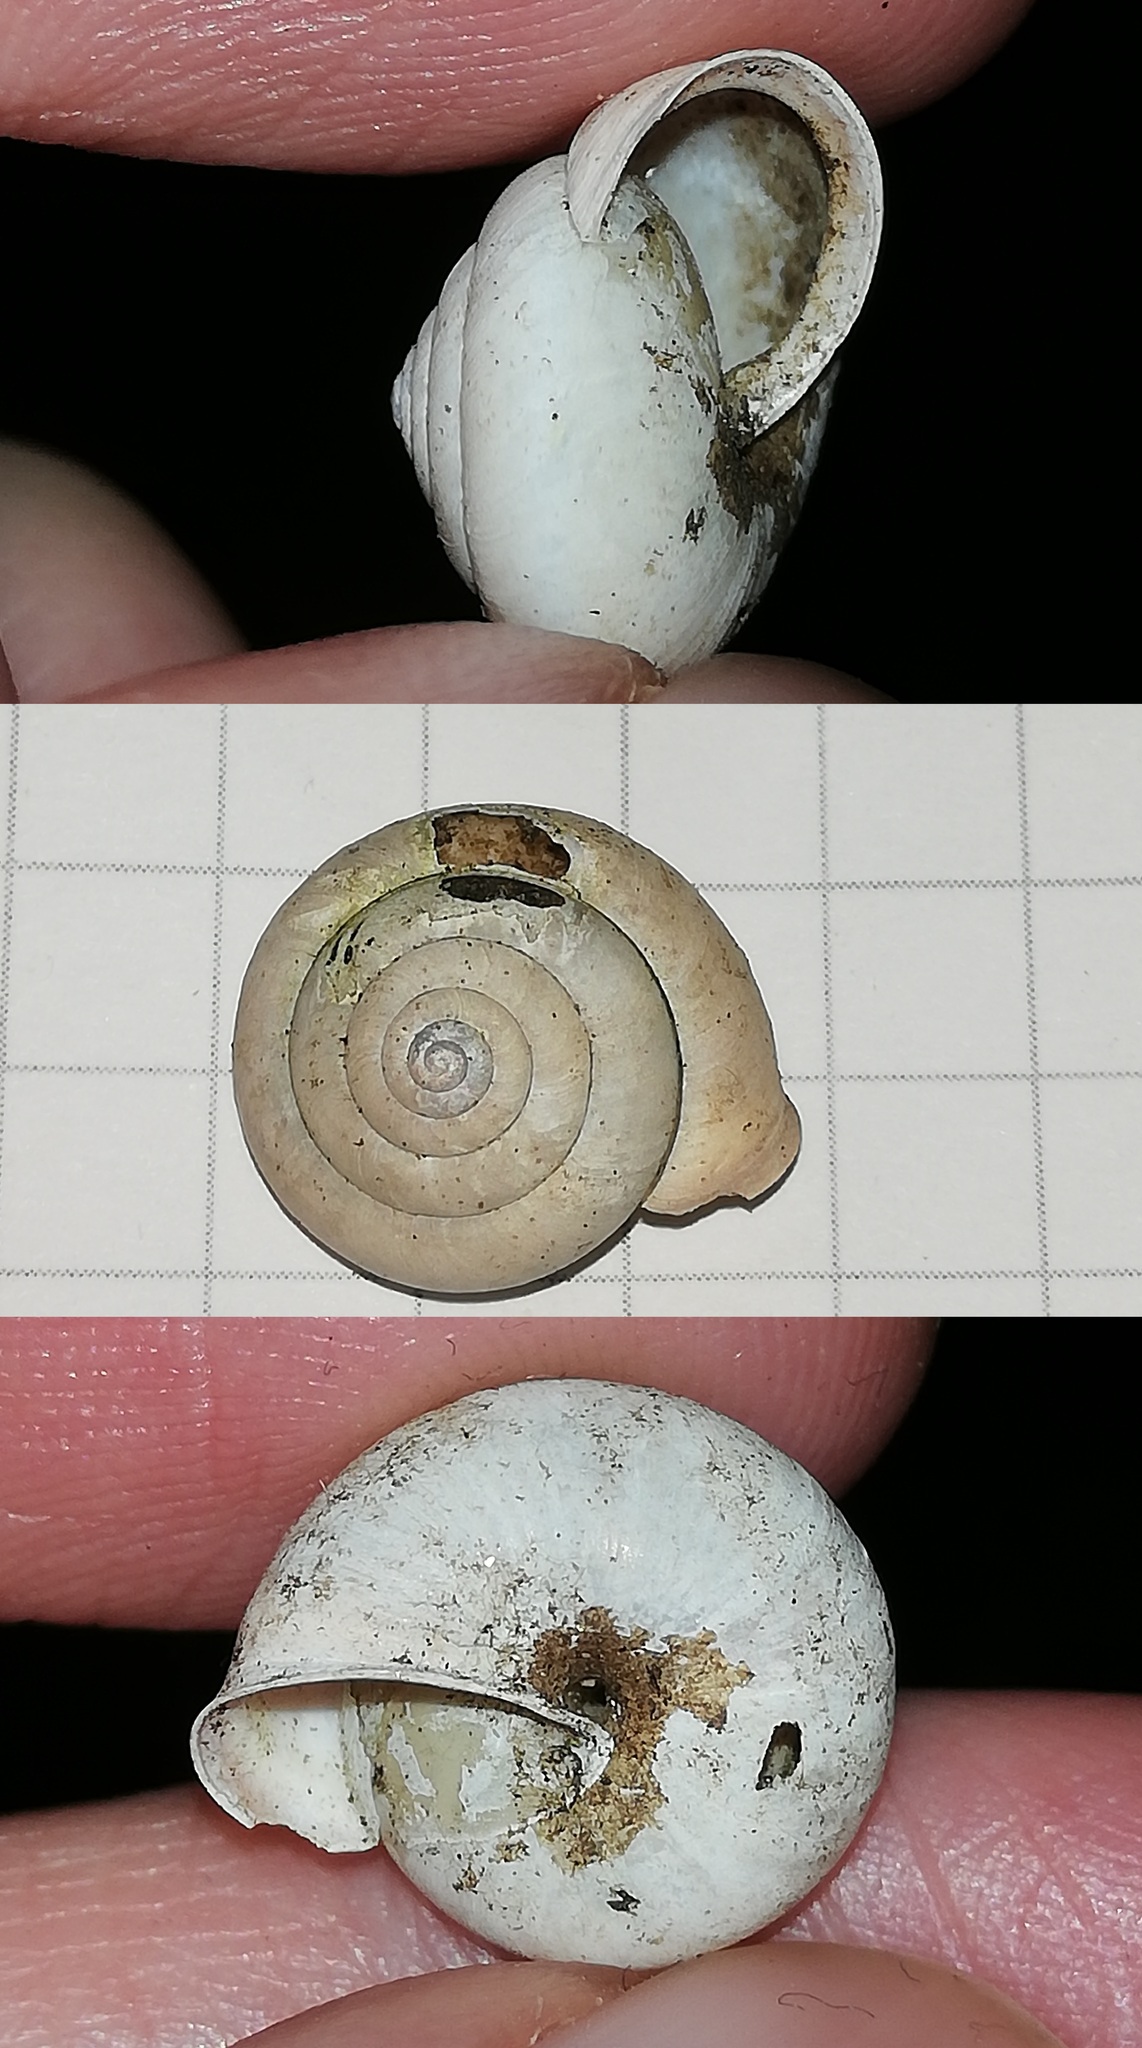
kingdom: Animalia
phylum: Mollusca
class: Gastropoda
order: Stylommatophora
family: Hygromiidae
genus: Monachoides
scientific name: Monachoides incarnatus
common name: Incarnate snail
